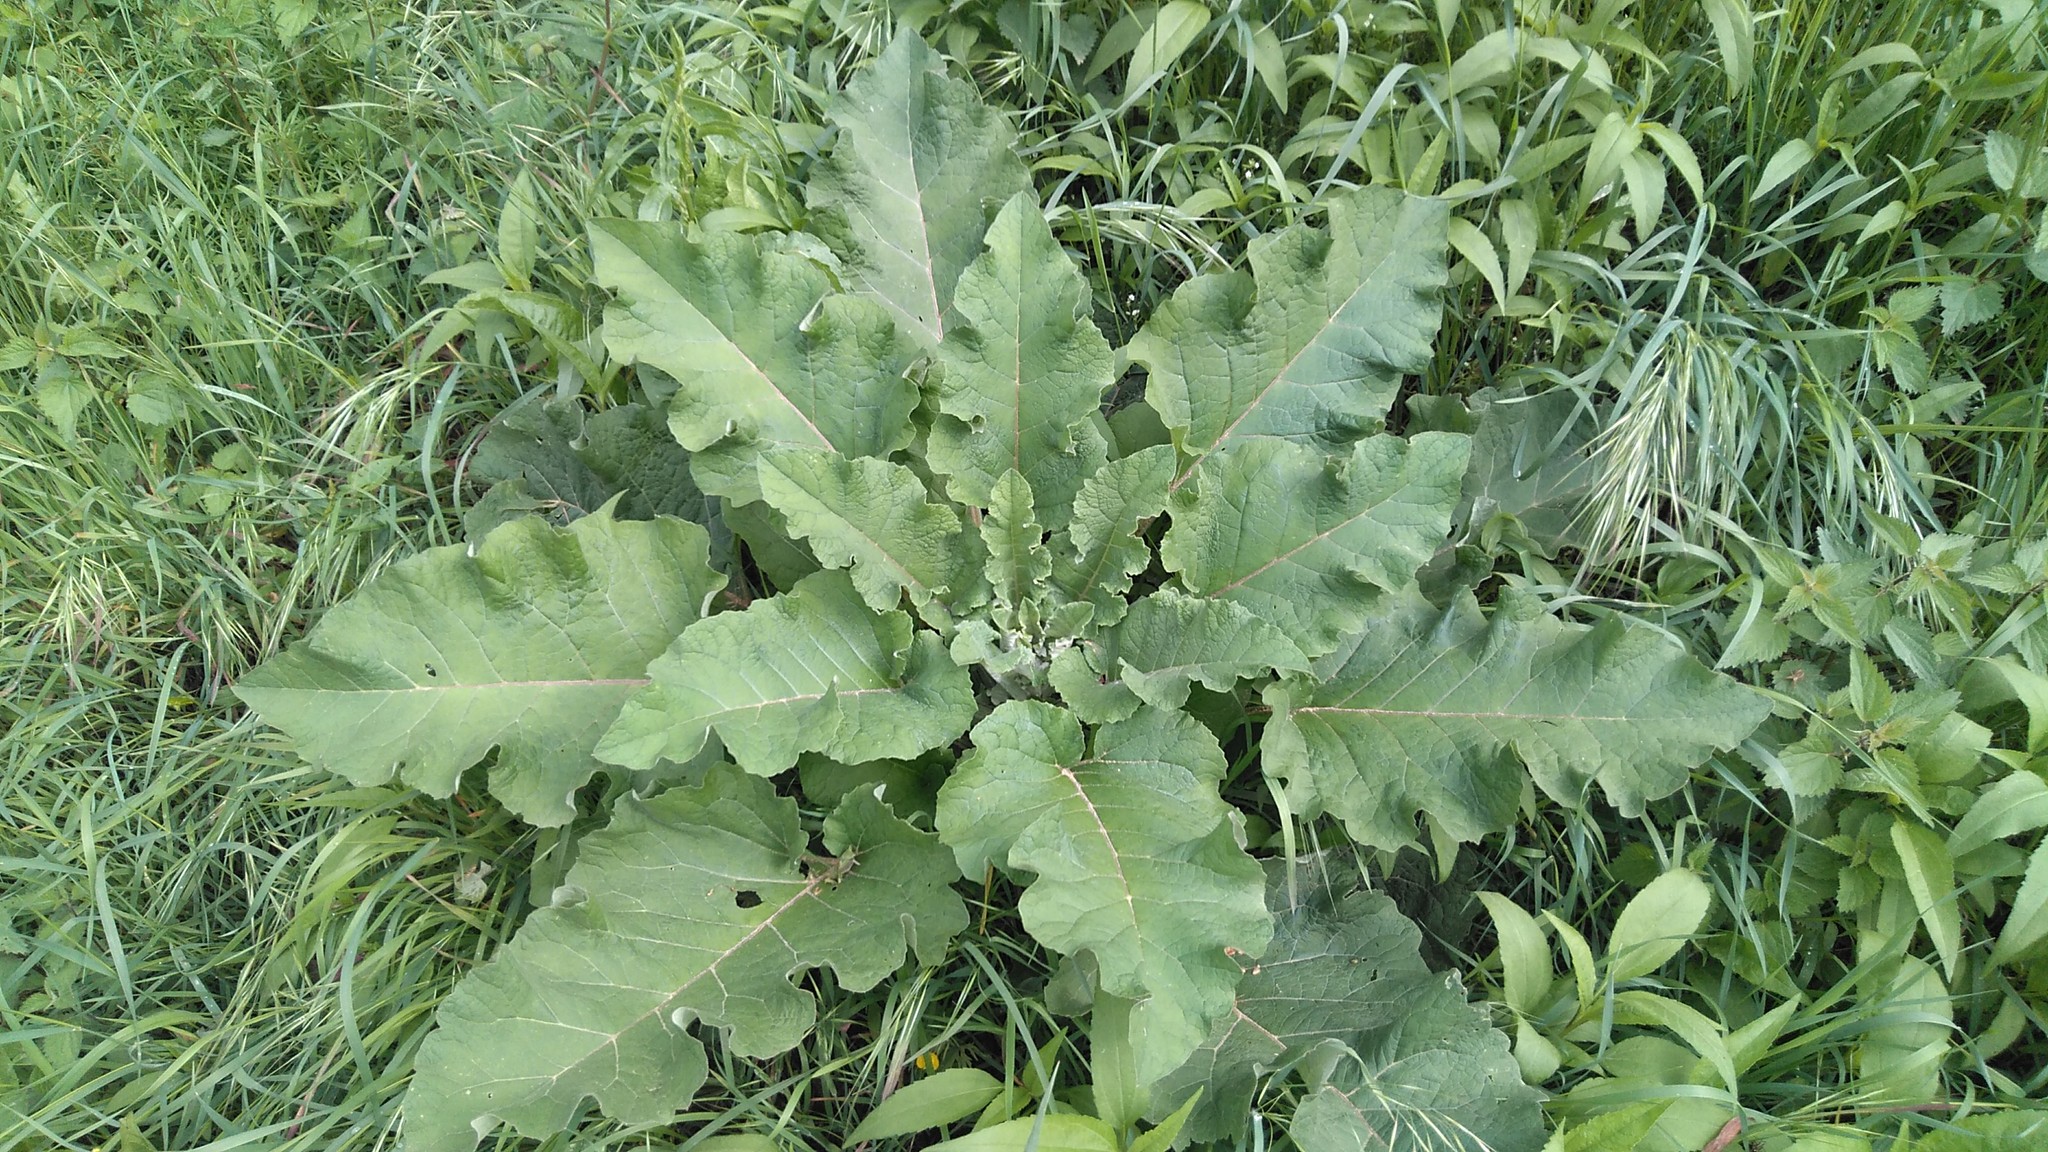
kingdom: Plantae
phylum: Tracheophyta
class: Magnoliopsida
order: Asterales
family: Asteraceae
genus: Arctium
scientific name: Arctium minus
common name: Lesser burdock
